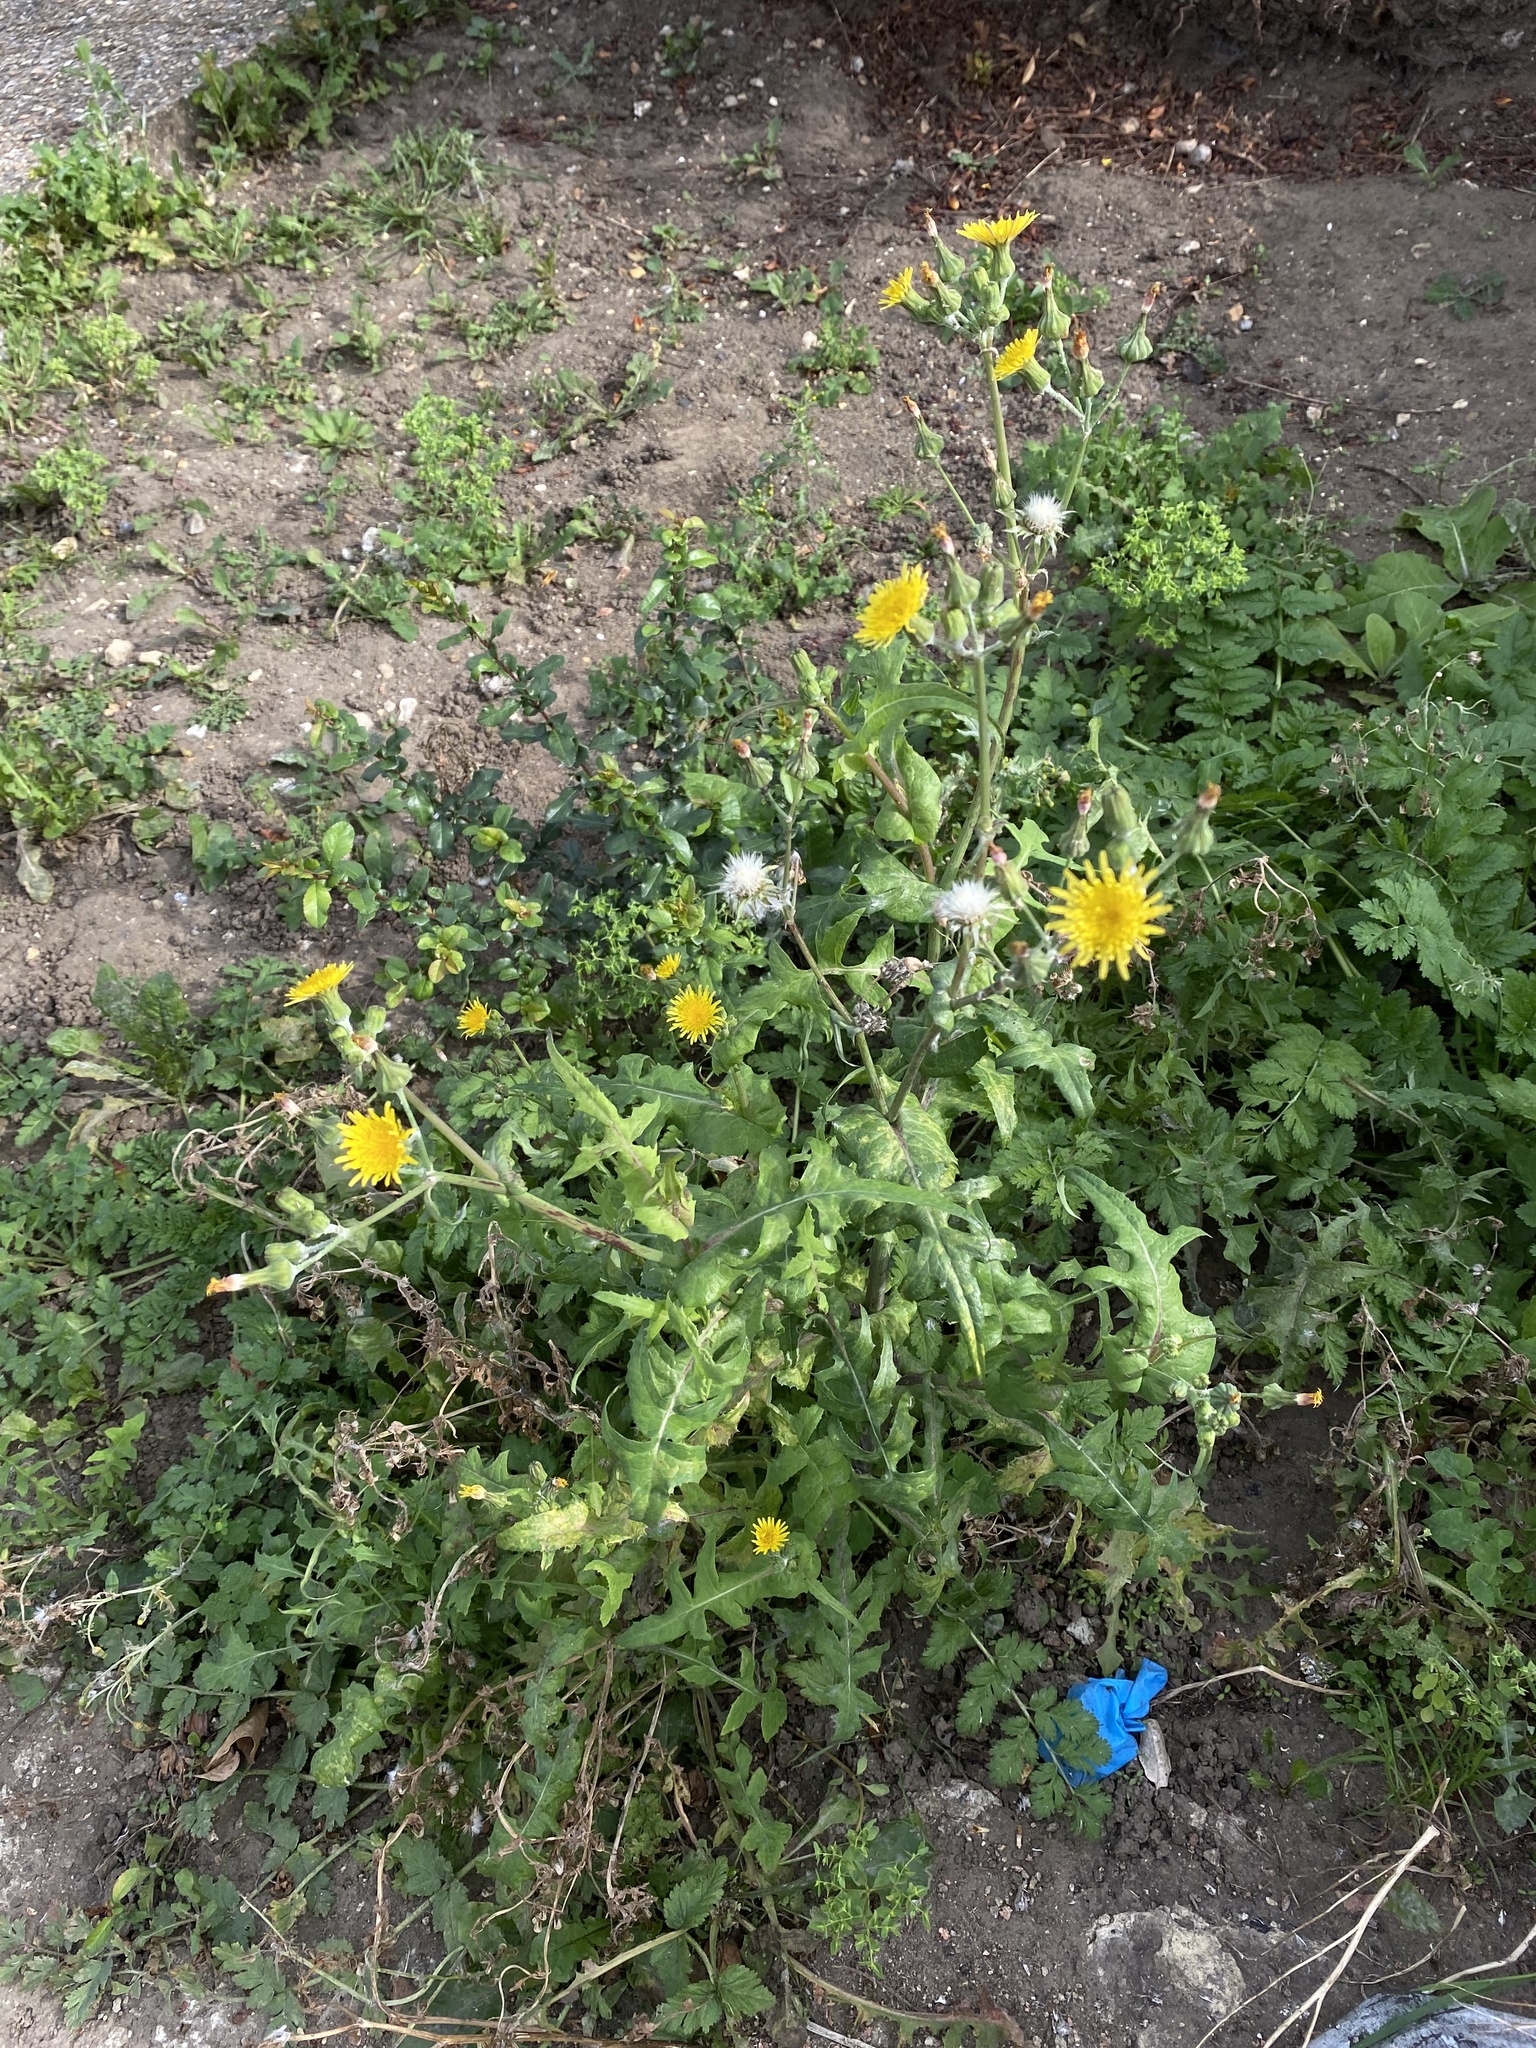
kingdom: Plantae
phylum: Tracheophyta
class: Magnoliopsida
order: Asterales
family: Asteraceae
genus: Sonchus
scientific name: Sonchus oleraceus
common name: Common sowthistle
